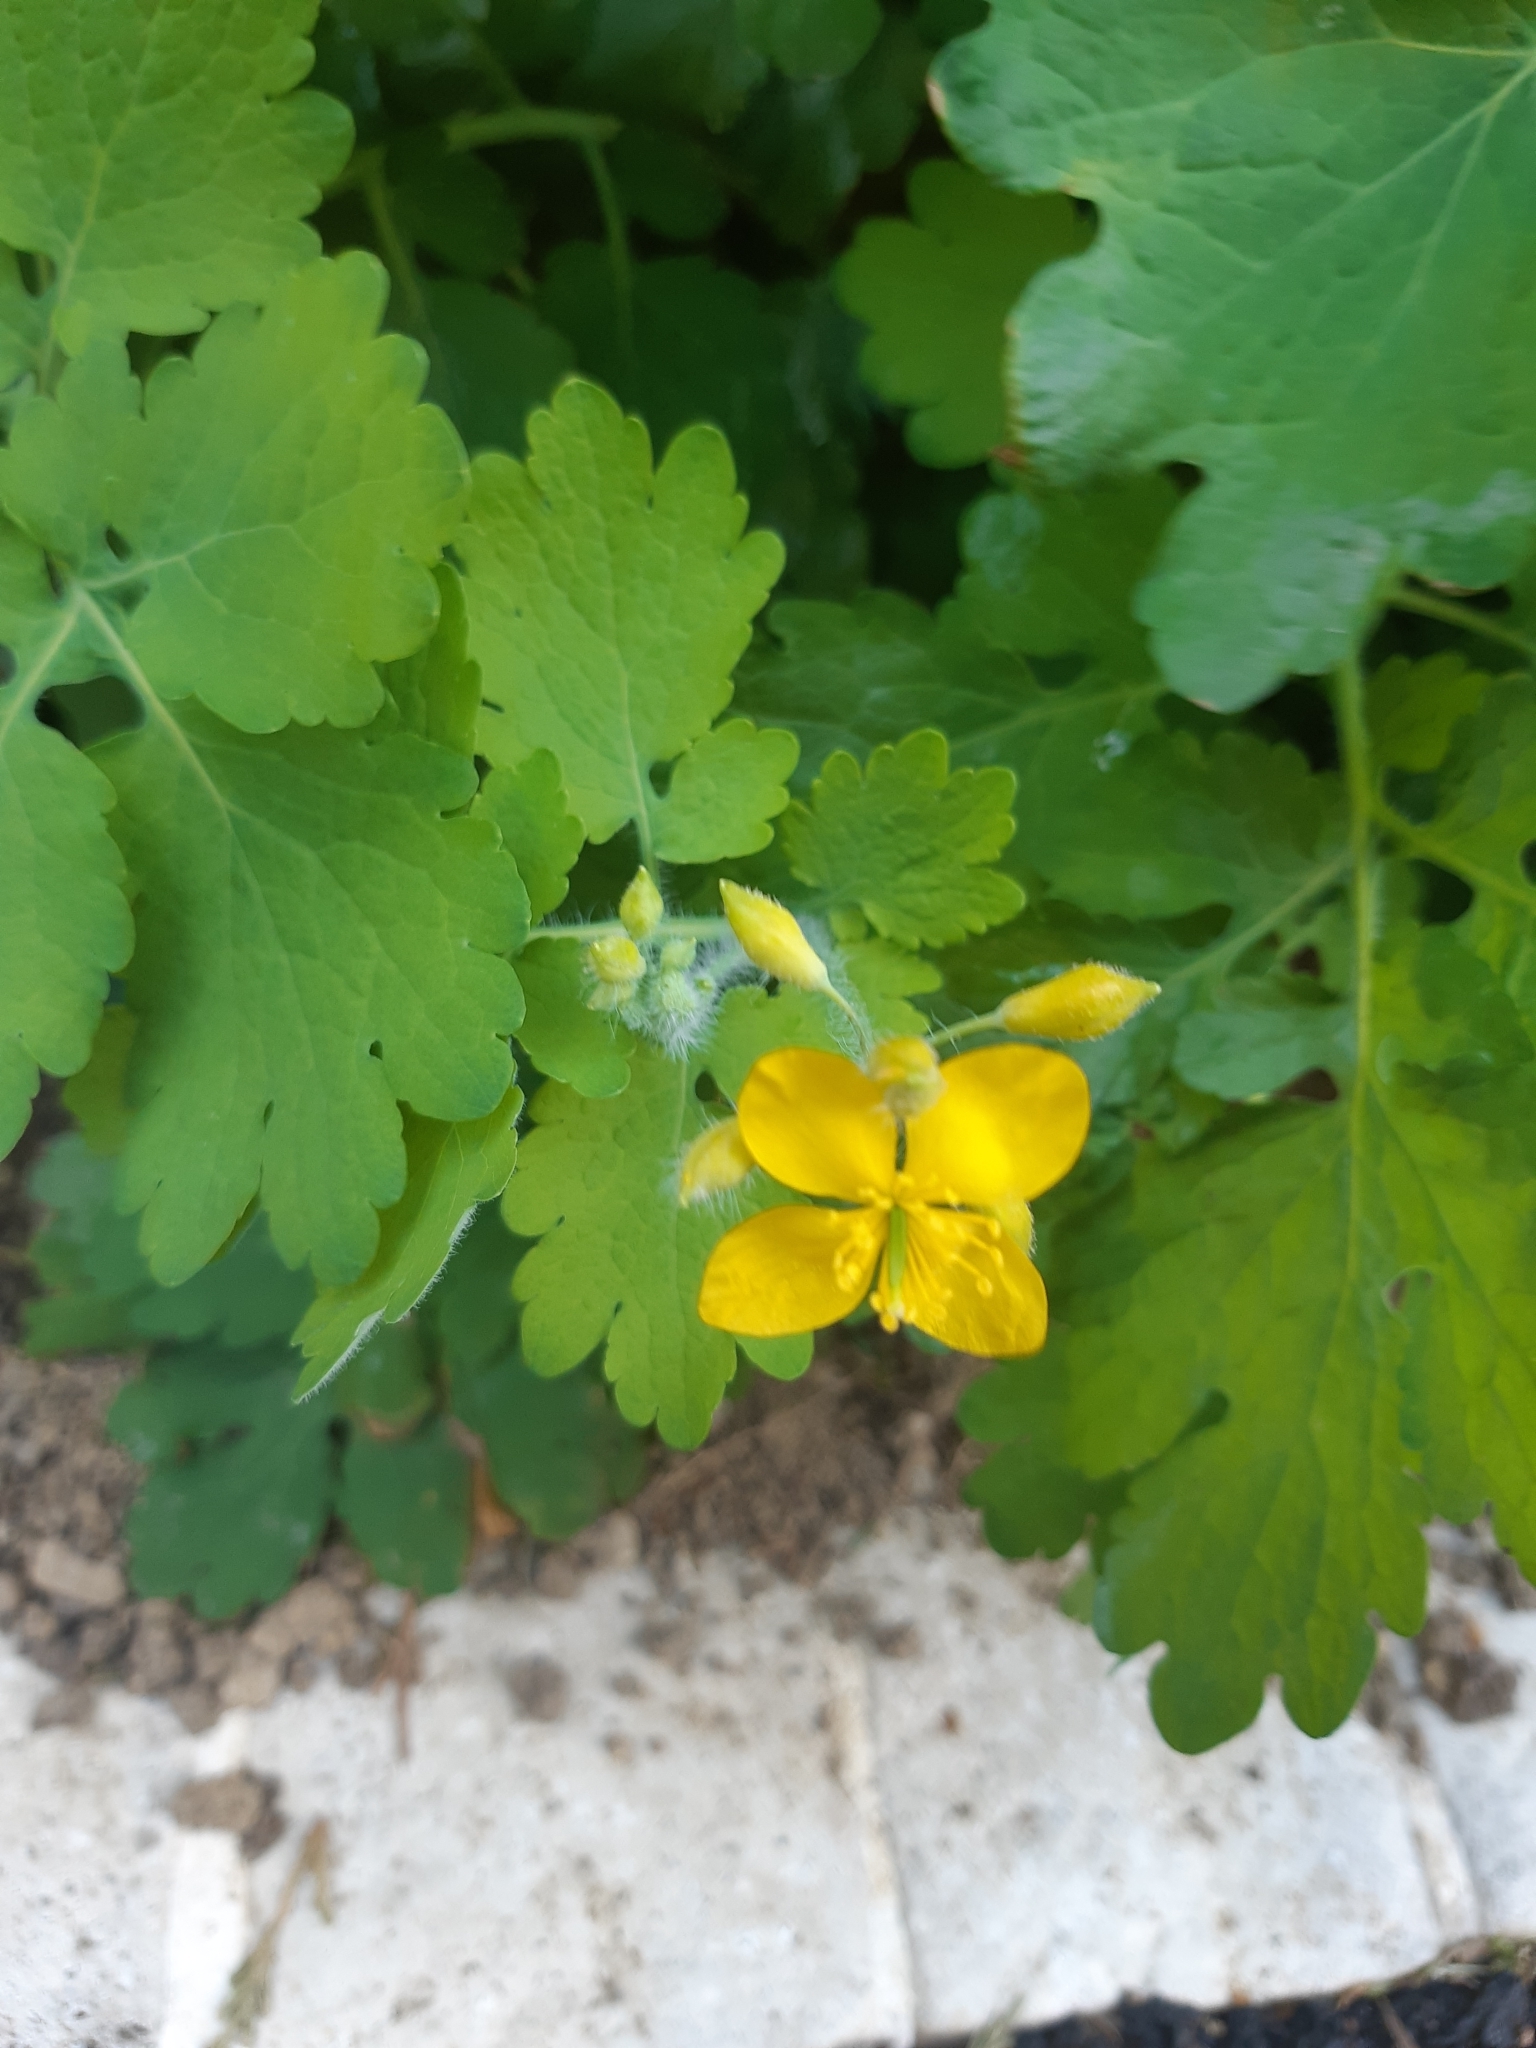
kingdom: Plantae
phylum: Tracheophyta
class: Magnoliopsida
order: Ranunculales
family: Papaveraceae
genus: Chelidonium
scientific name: Chelidonium majus
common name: Greater celandine
